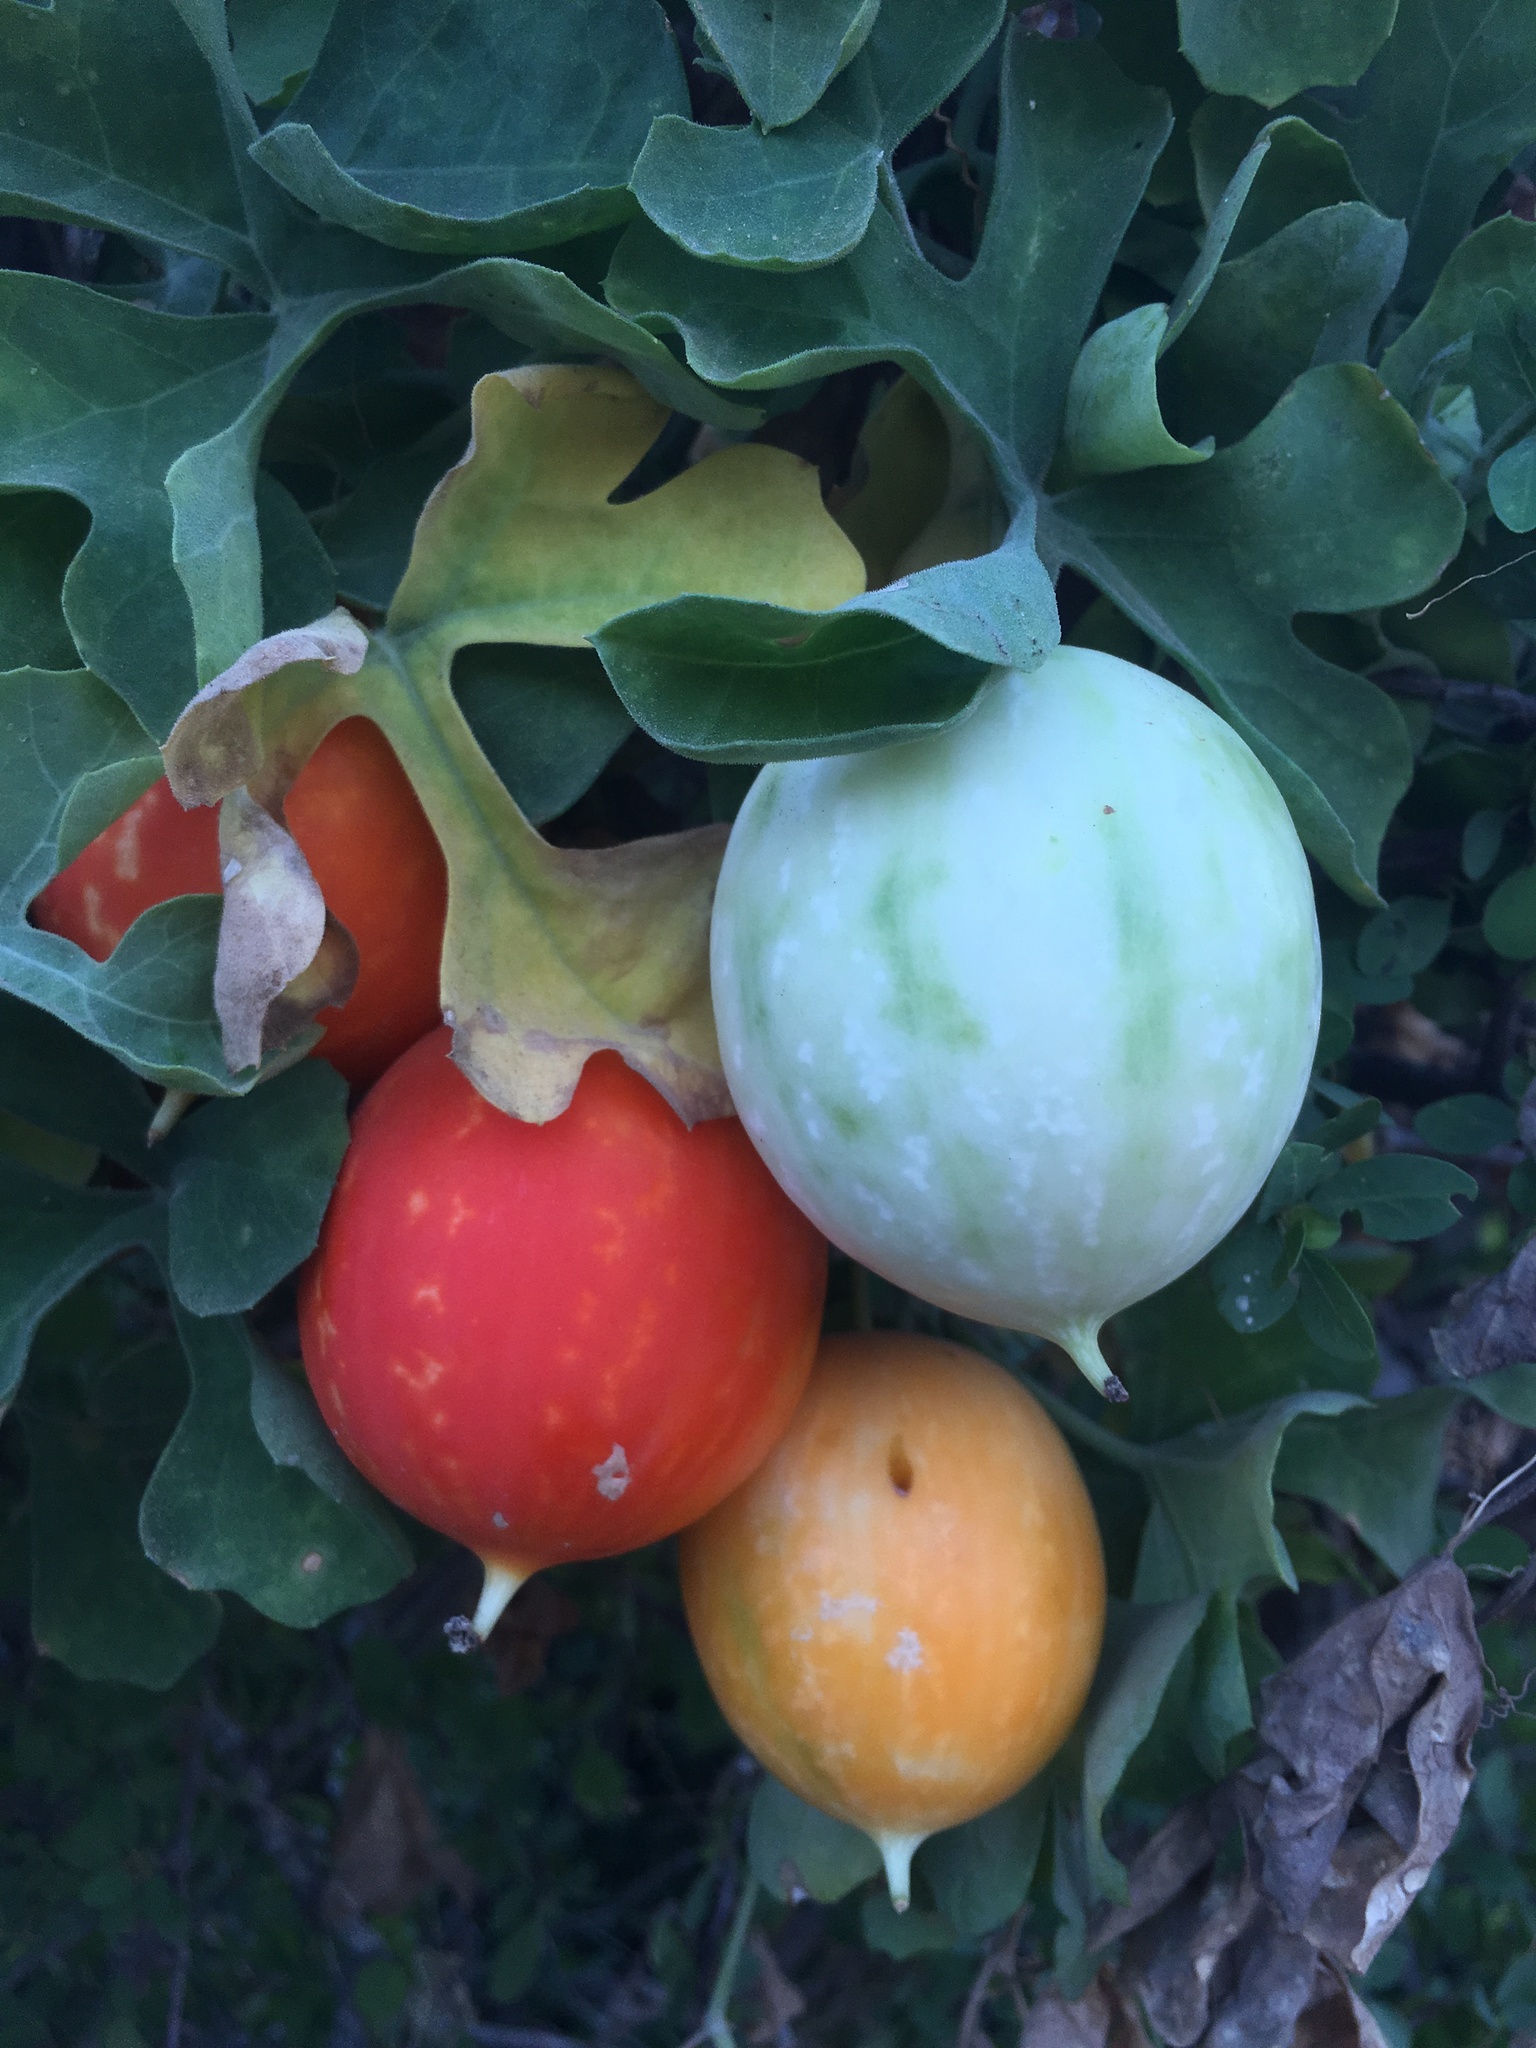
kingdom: Plantae
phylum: Tracheophyta
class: Magnoliopsida
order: Cucurbitales
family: Cucurbitaceae
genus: Ibervillea
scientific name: Ibervillea sonorae
